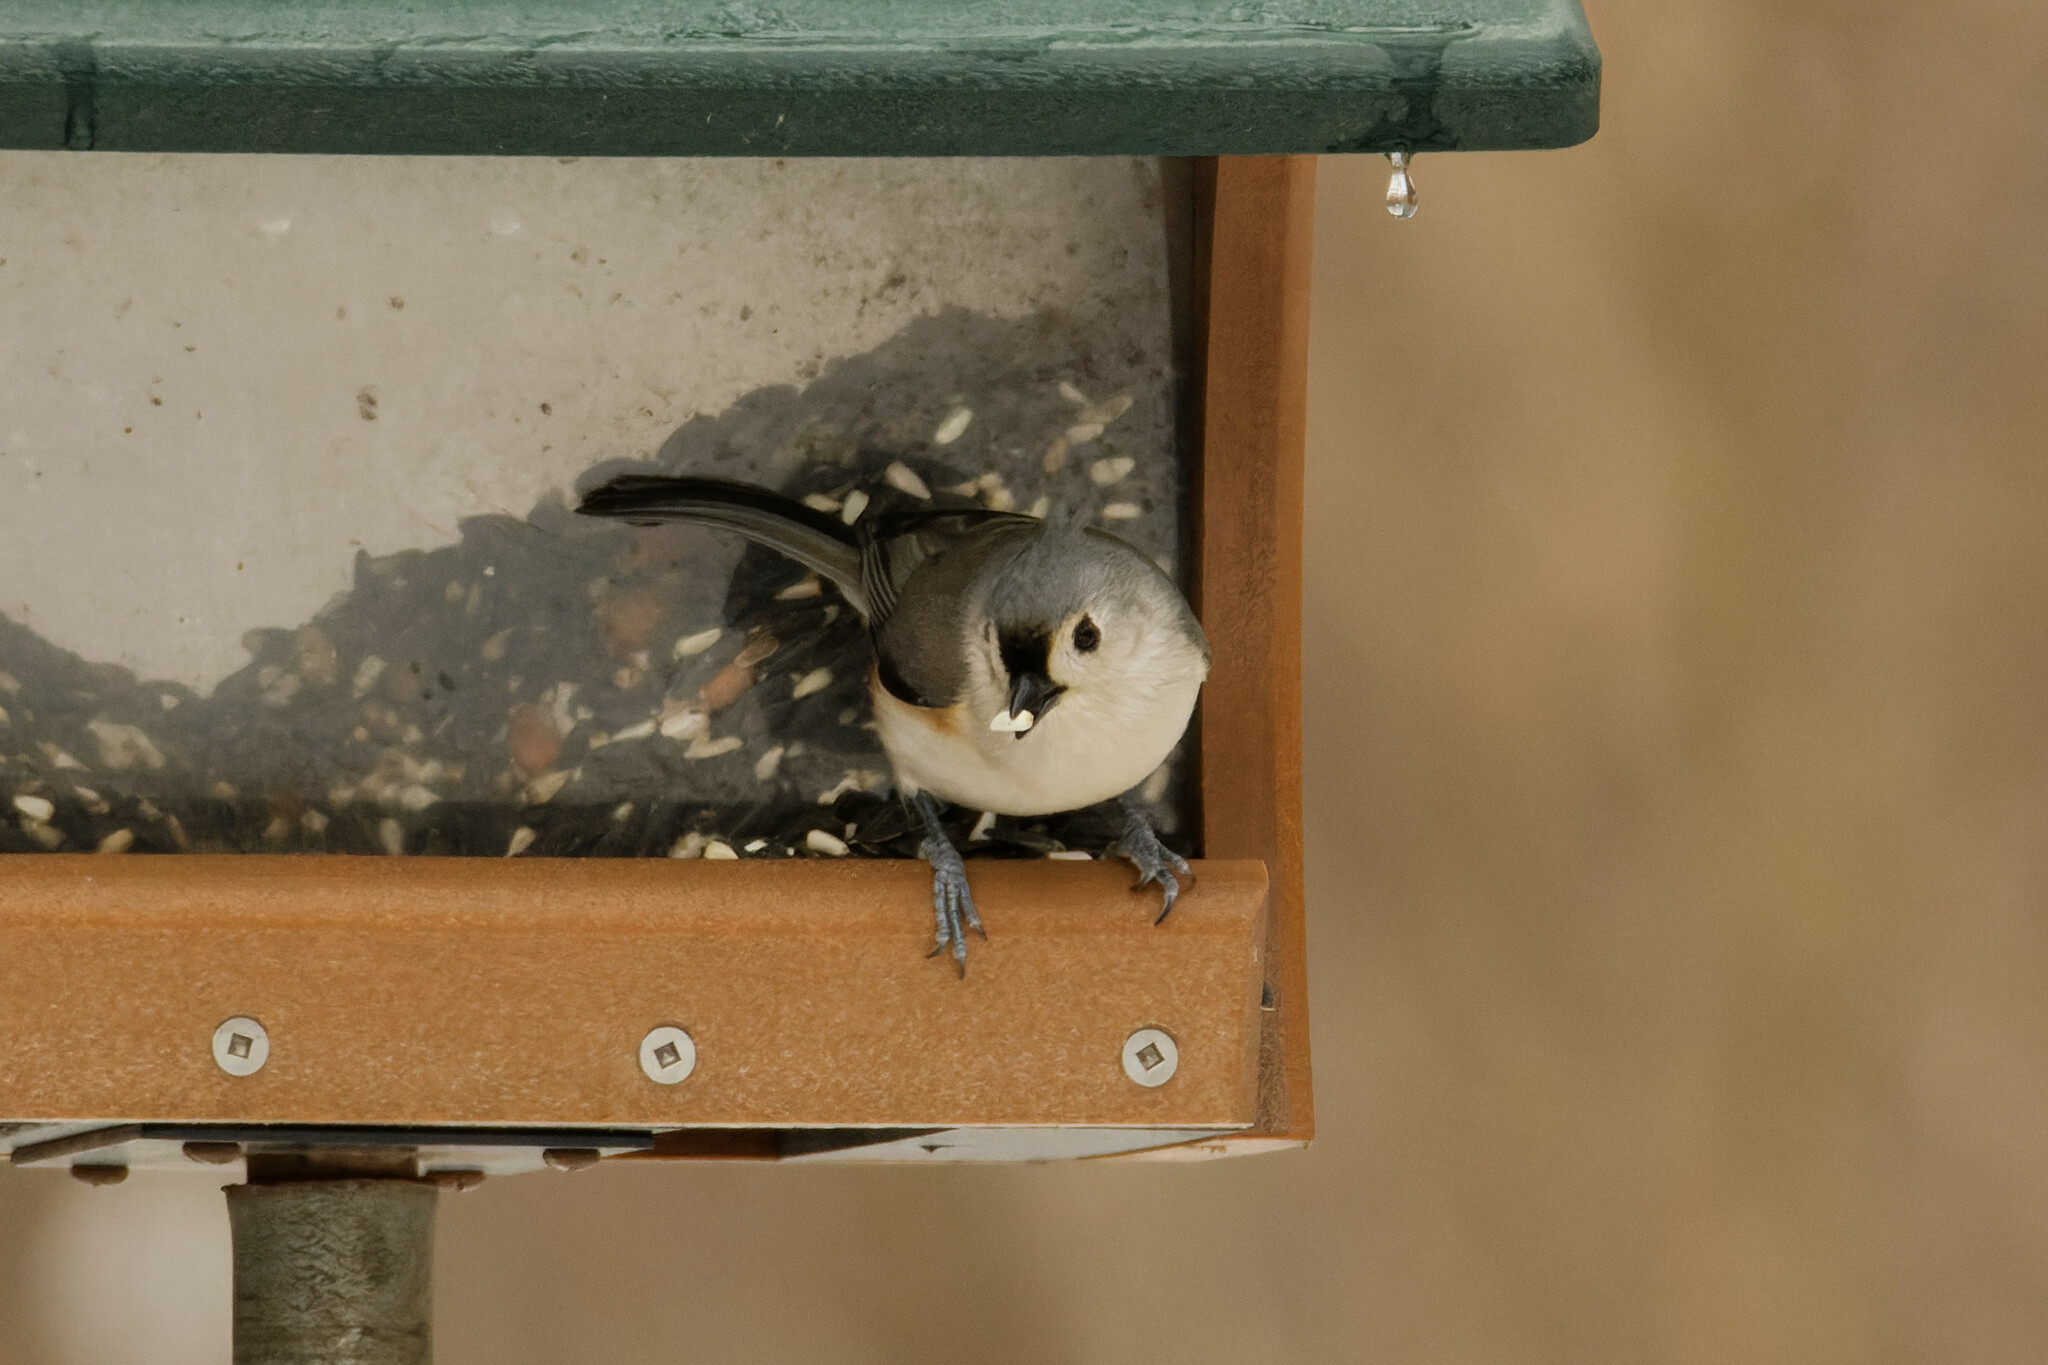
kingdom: Animalia
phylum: Chordata
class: Aves
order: Passeriformes
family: Paridae
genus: Baeolophus
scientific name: Baeolophus bicolor
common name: Tufted titmouse
